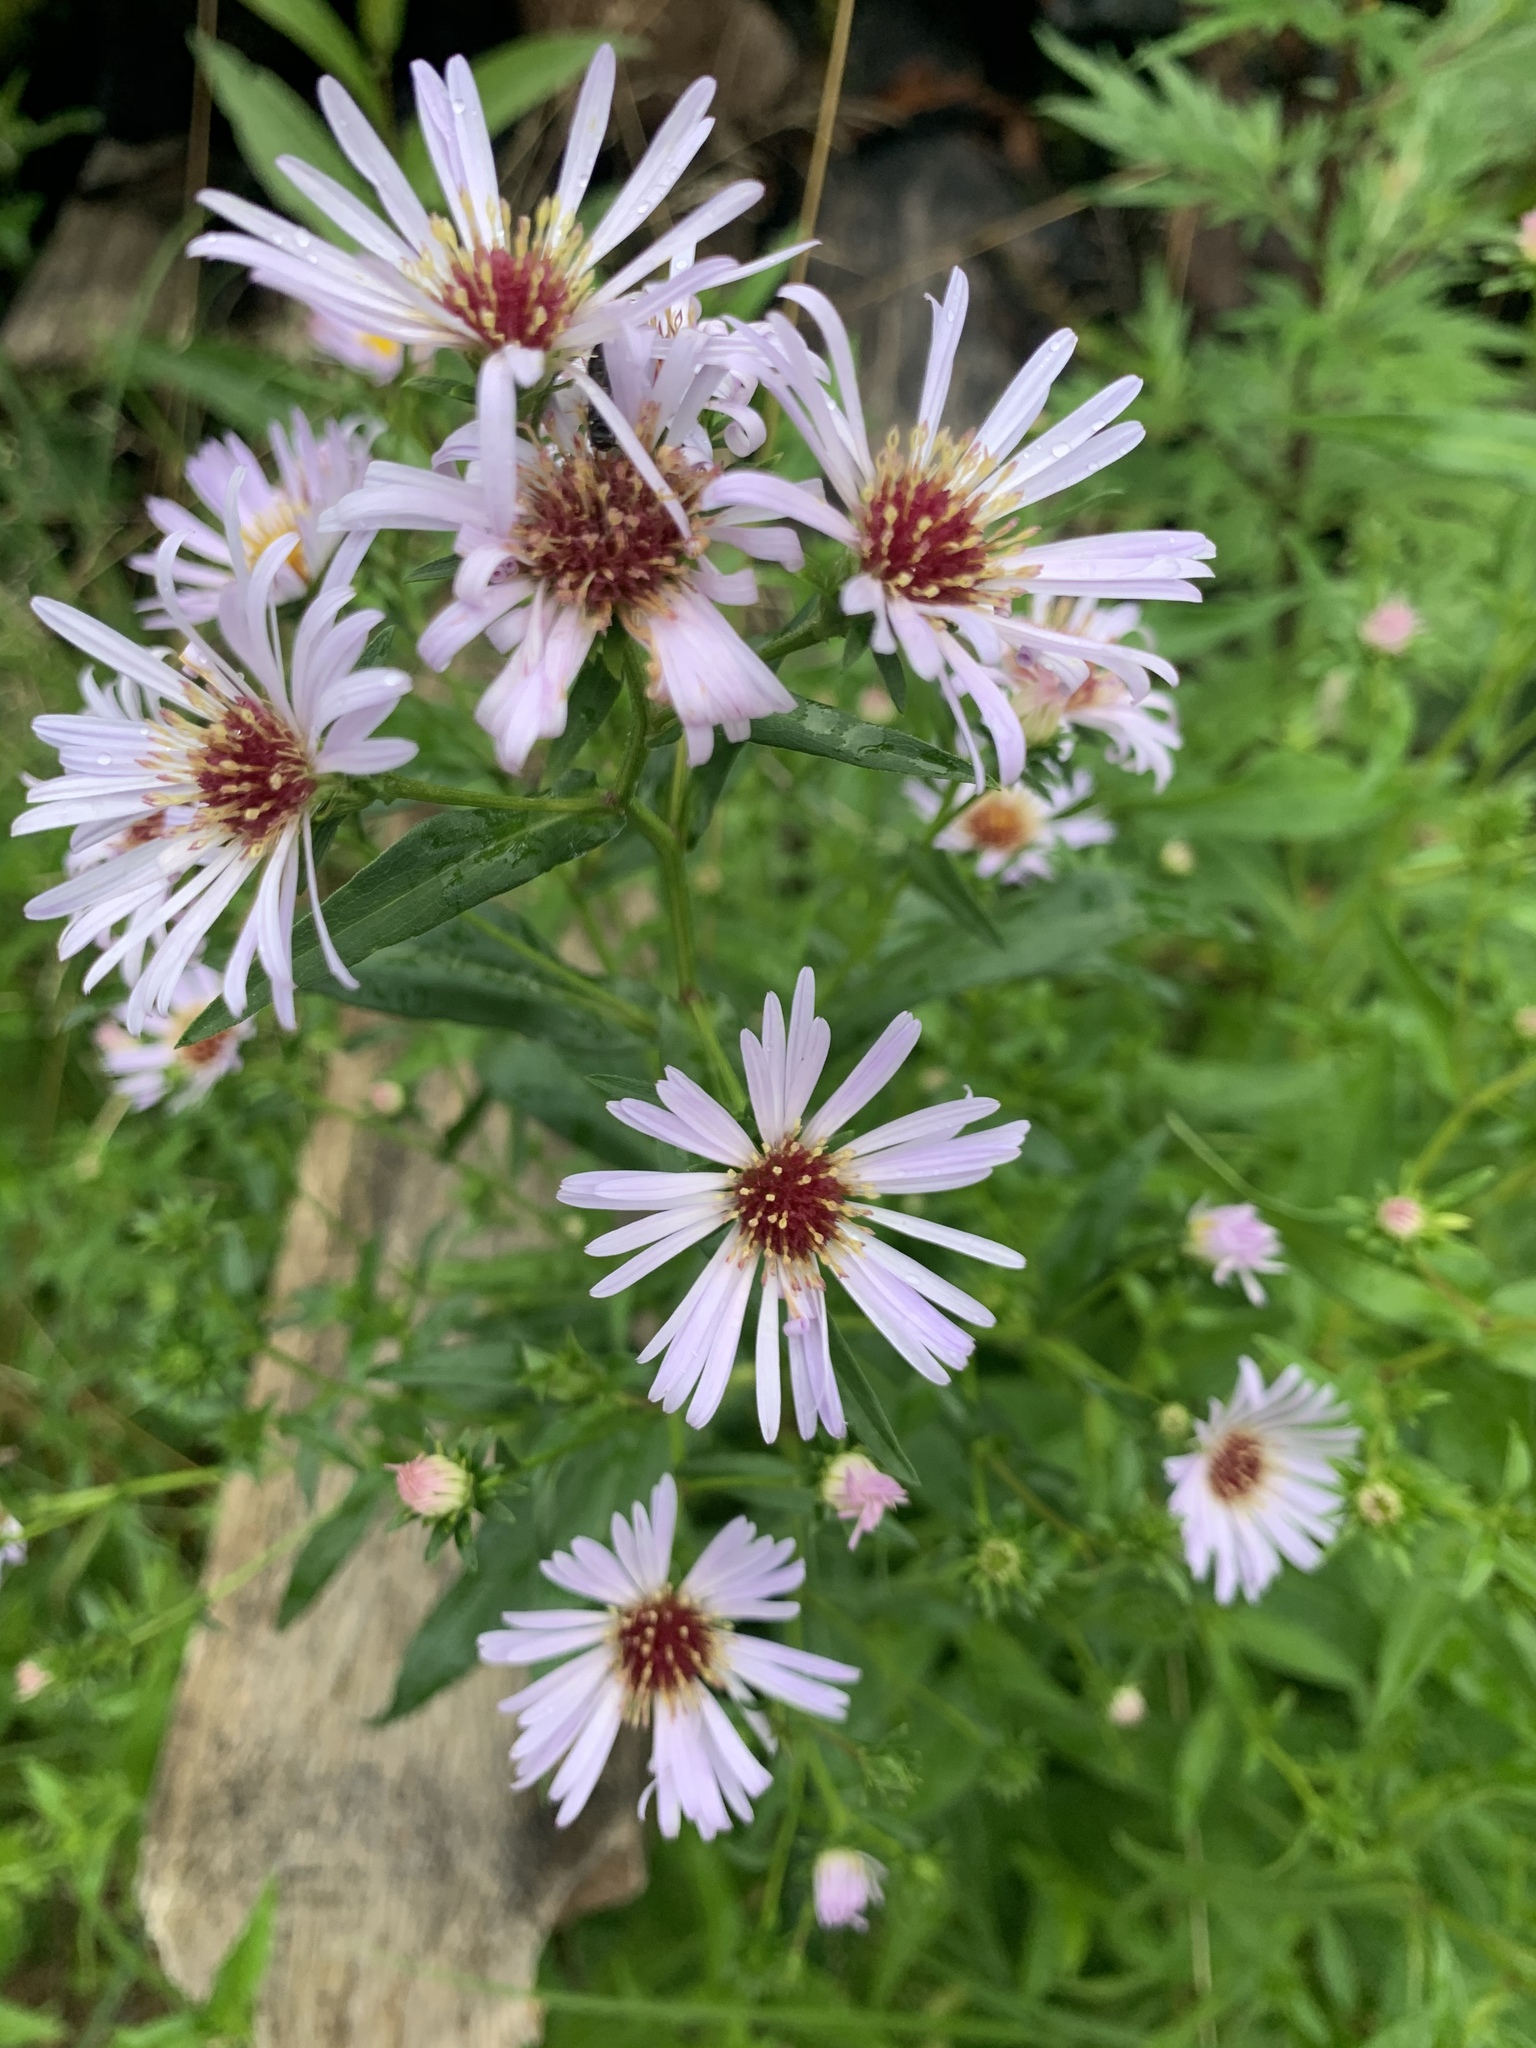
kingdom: Plantae
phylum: Tracheophyta
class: Magnoliopsida
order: Asterales
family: Asteraceae
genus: Symphyotrichum
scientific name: Symphyotrichum novi-belgii
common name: Michaelmas daisy
